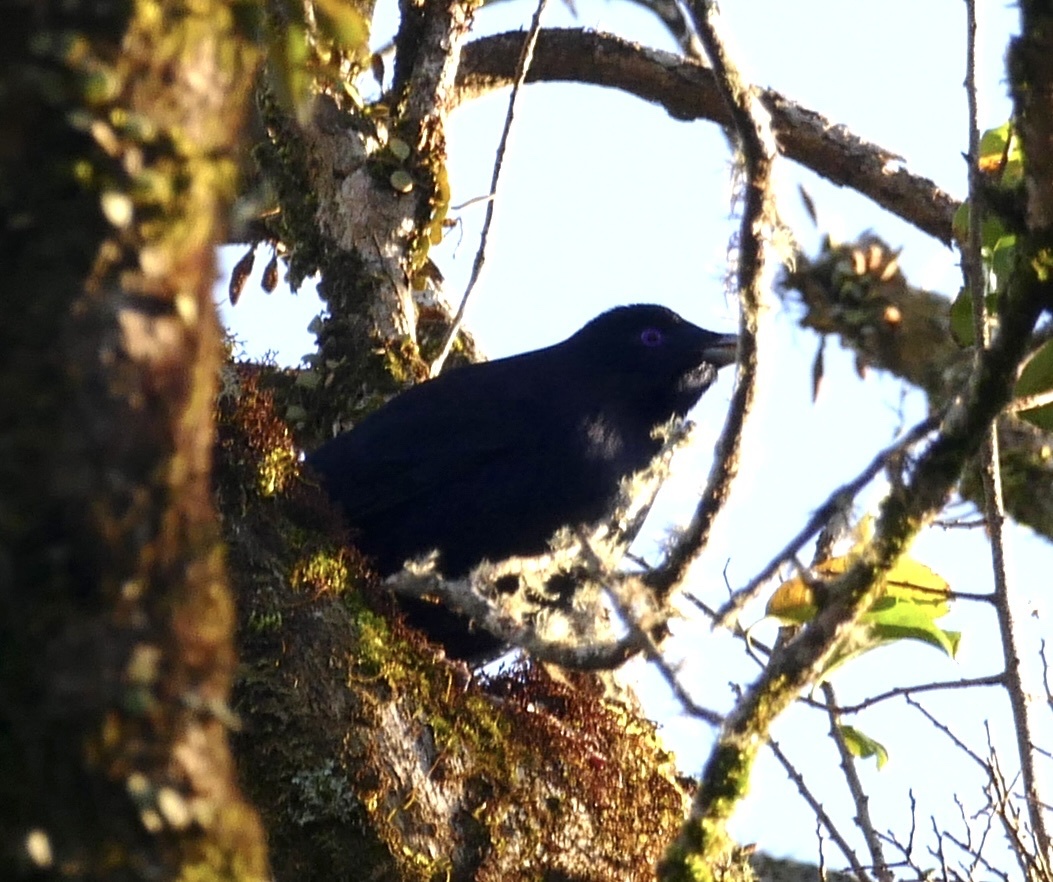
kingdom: Animalia
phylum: Chordata
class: Aves
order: Passeriformes
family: Ptilonorhynchidae
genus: Ptilonorhynchus
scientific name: Ptilonorhynchus violaceus
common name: Satin bowerbird
